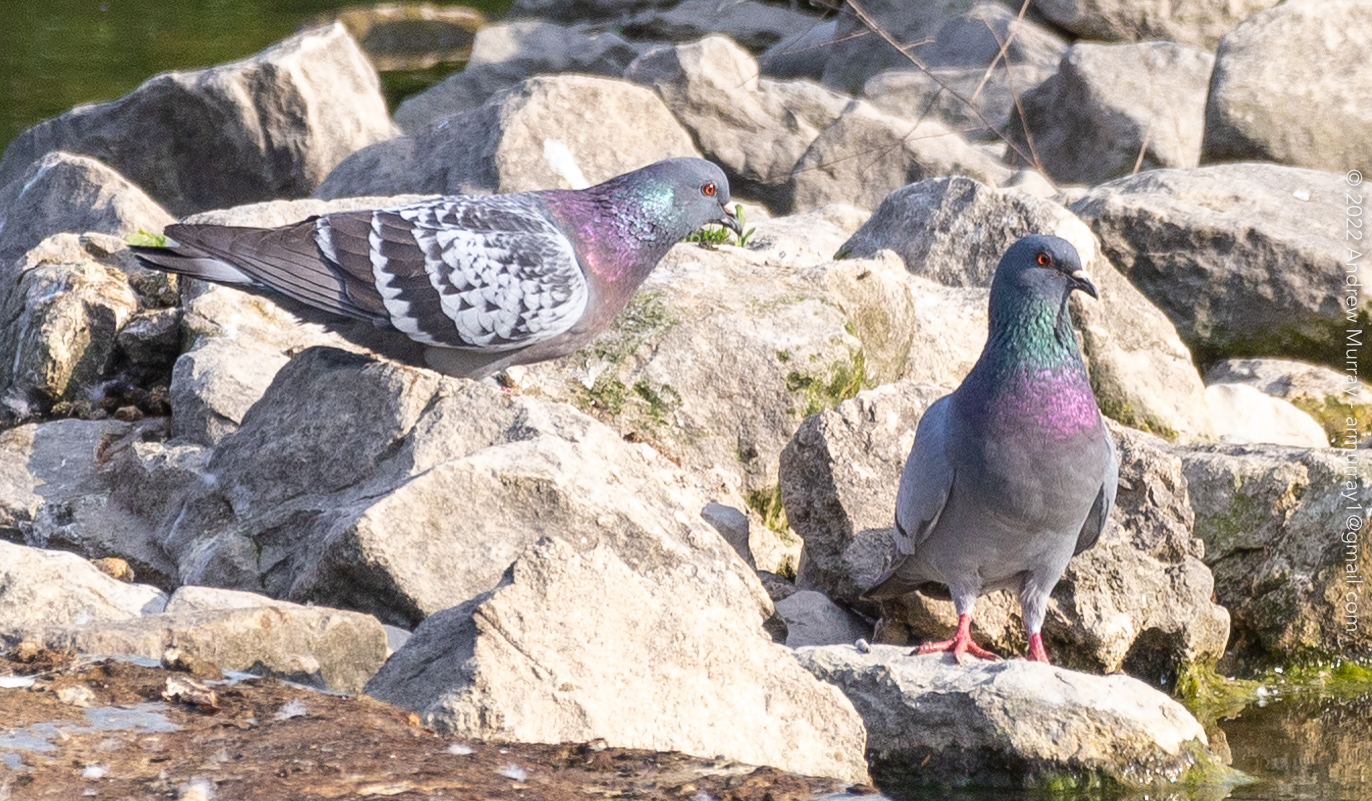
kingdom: Animalia
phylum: Chordata
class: Aves
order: Columbiformes
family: Columbidae
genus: Columba
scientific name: Columba livia
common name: Rock pigeon
